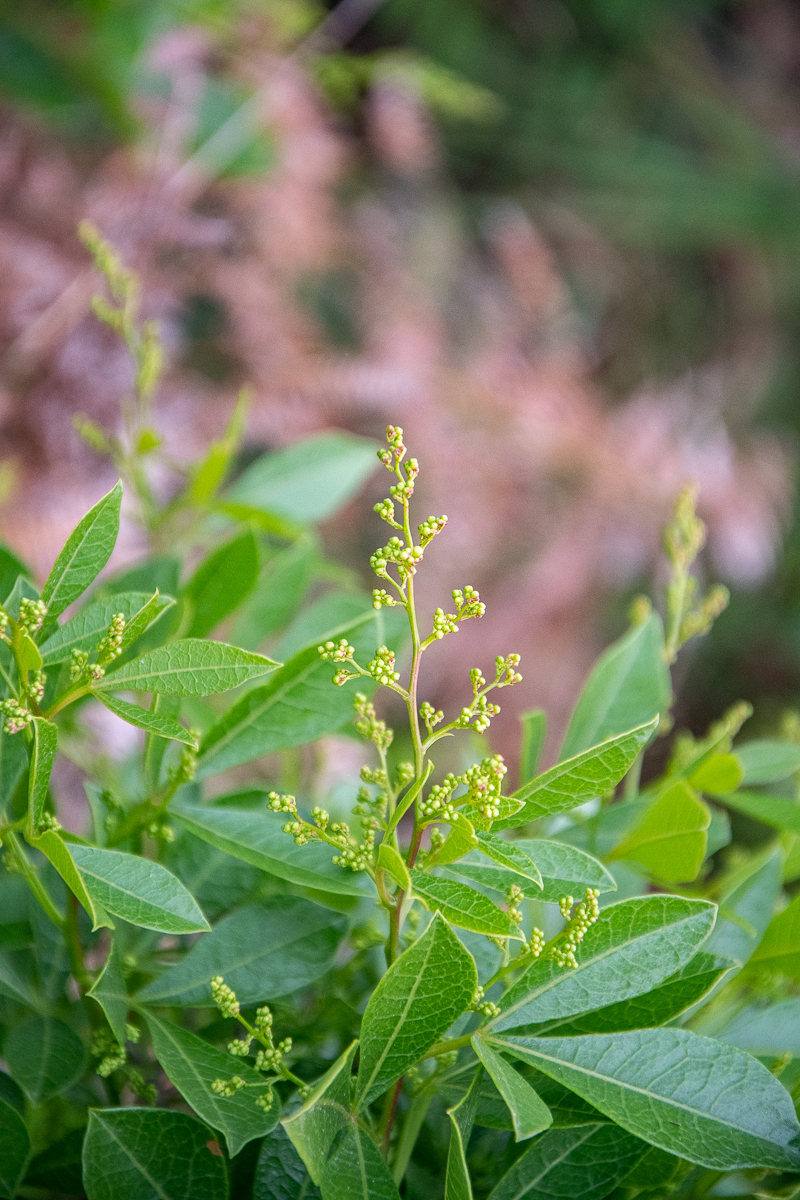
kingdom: Plantae
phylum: Tracheophyta
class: Magnoliopsida
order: Sapindales
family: Anacardiaceae
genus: Searsia
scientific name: Searsia laevigata
